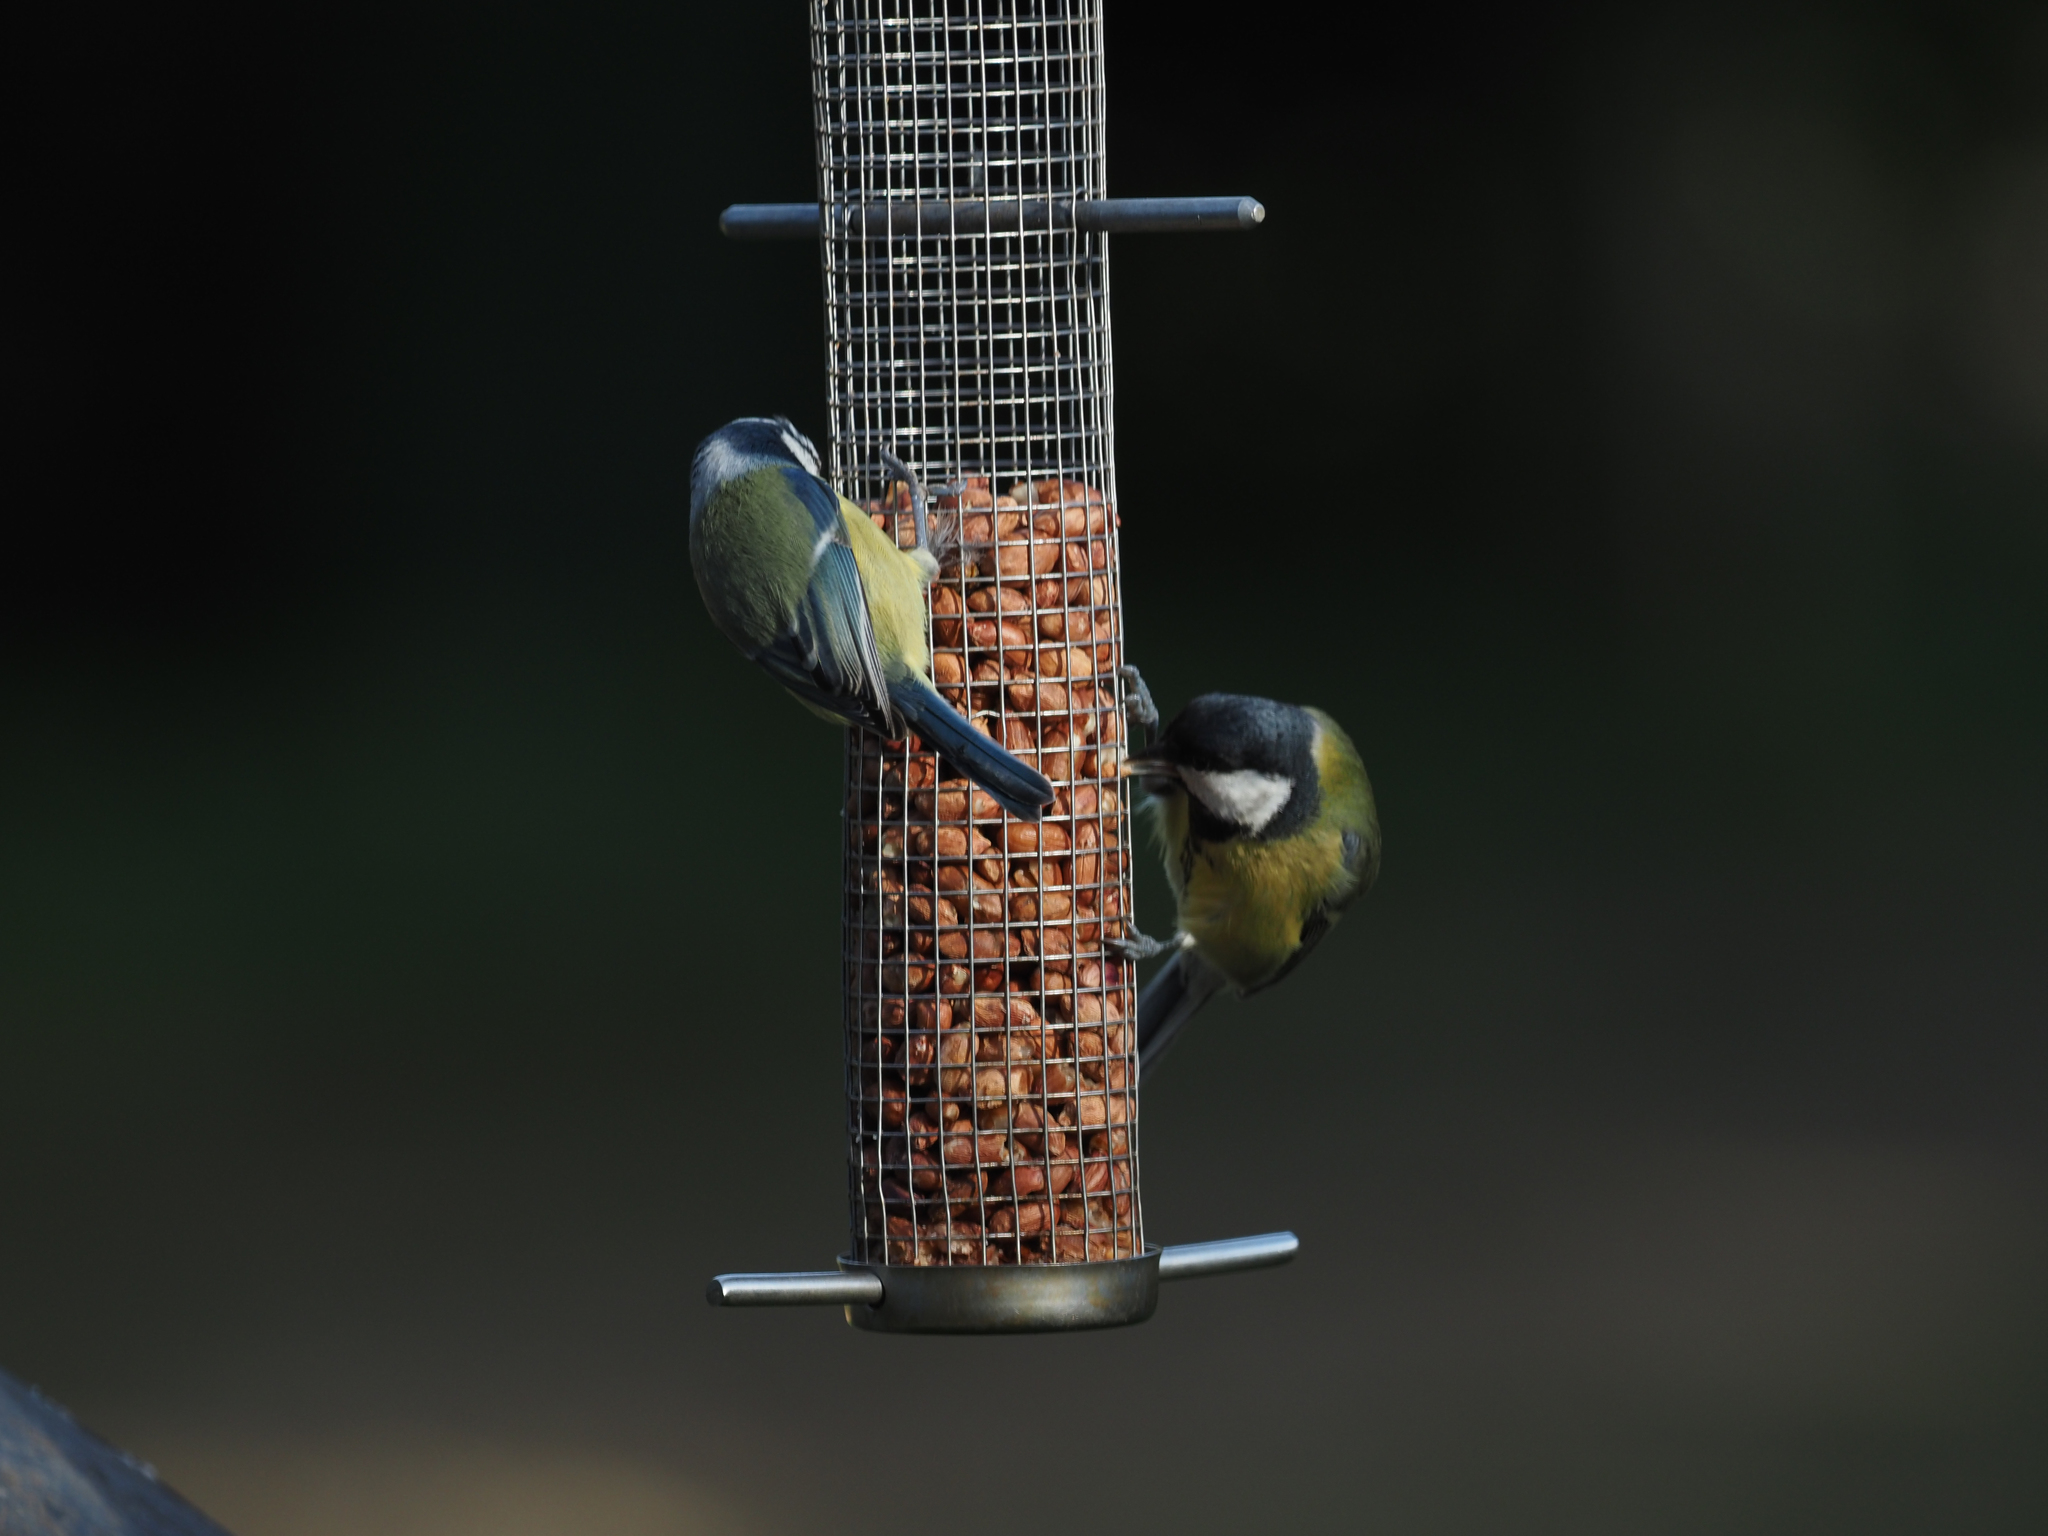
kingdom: Animalia
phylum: Chordata
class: Aves
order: Passeriformes
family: Paridae
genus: Cyanistes
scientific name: Cyanistes caeruleus
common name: Eurasian blue tit
